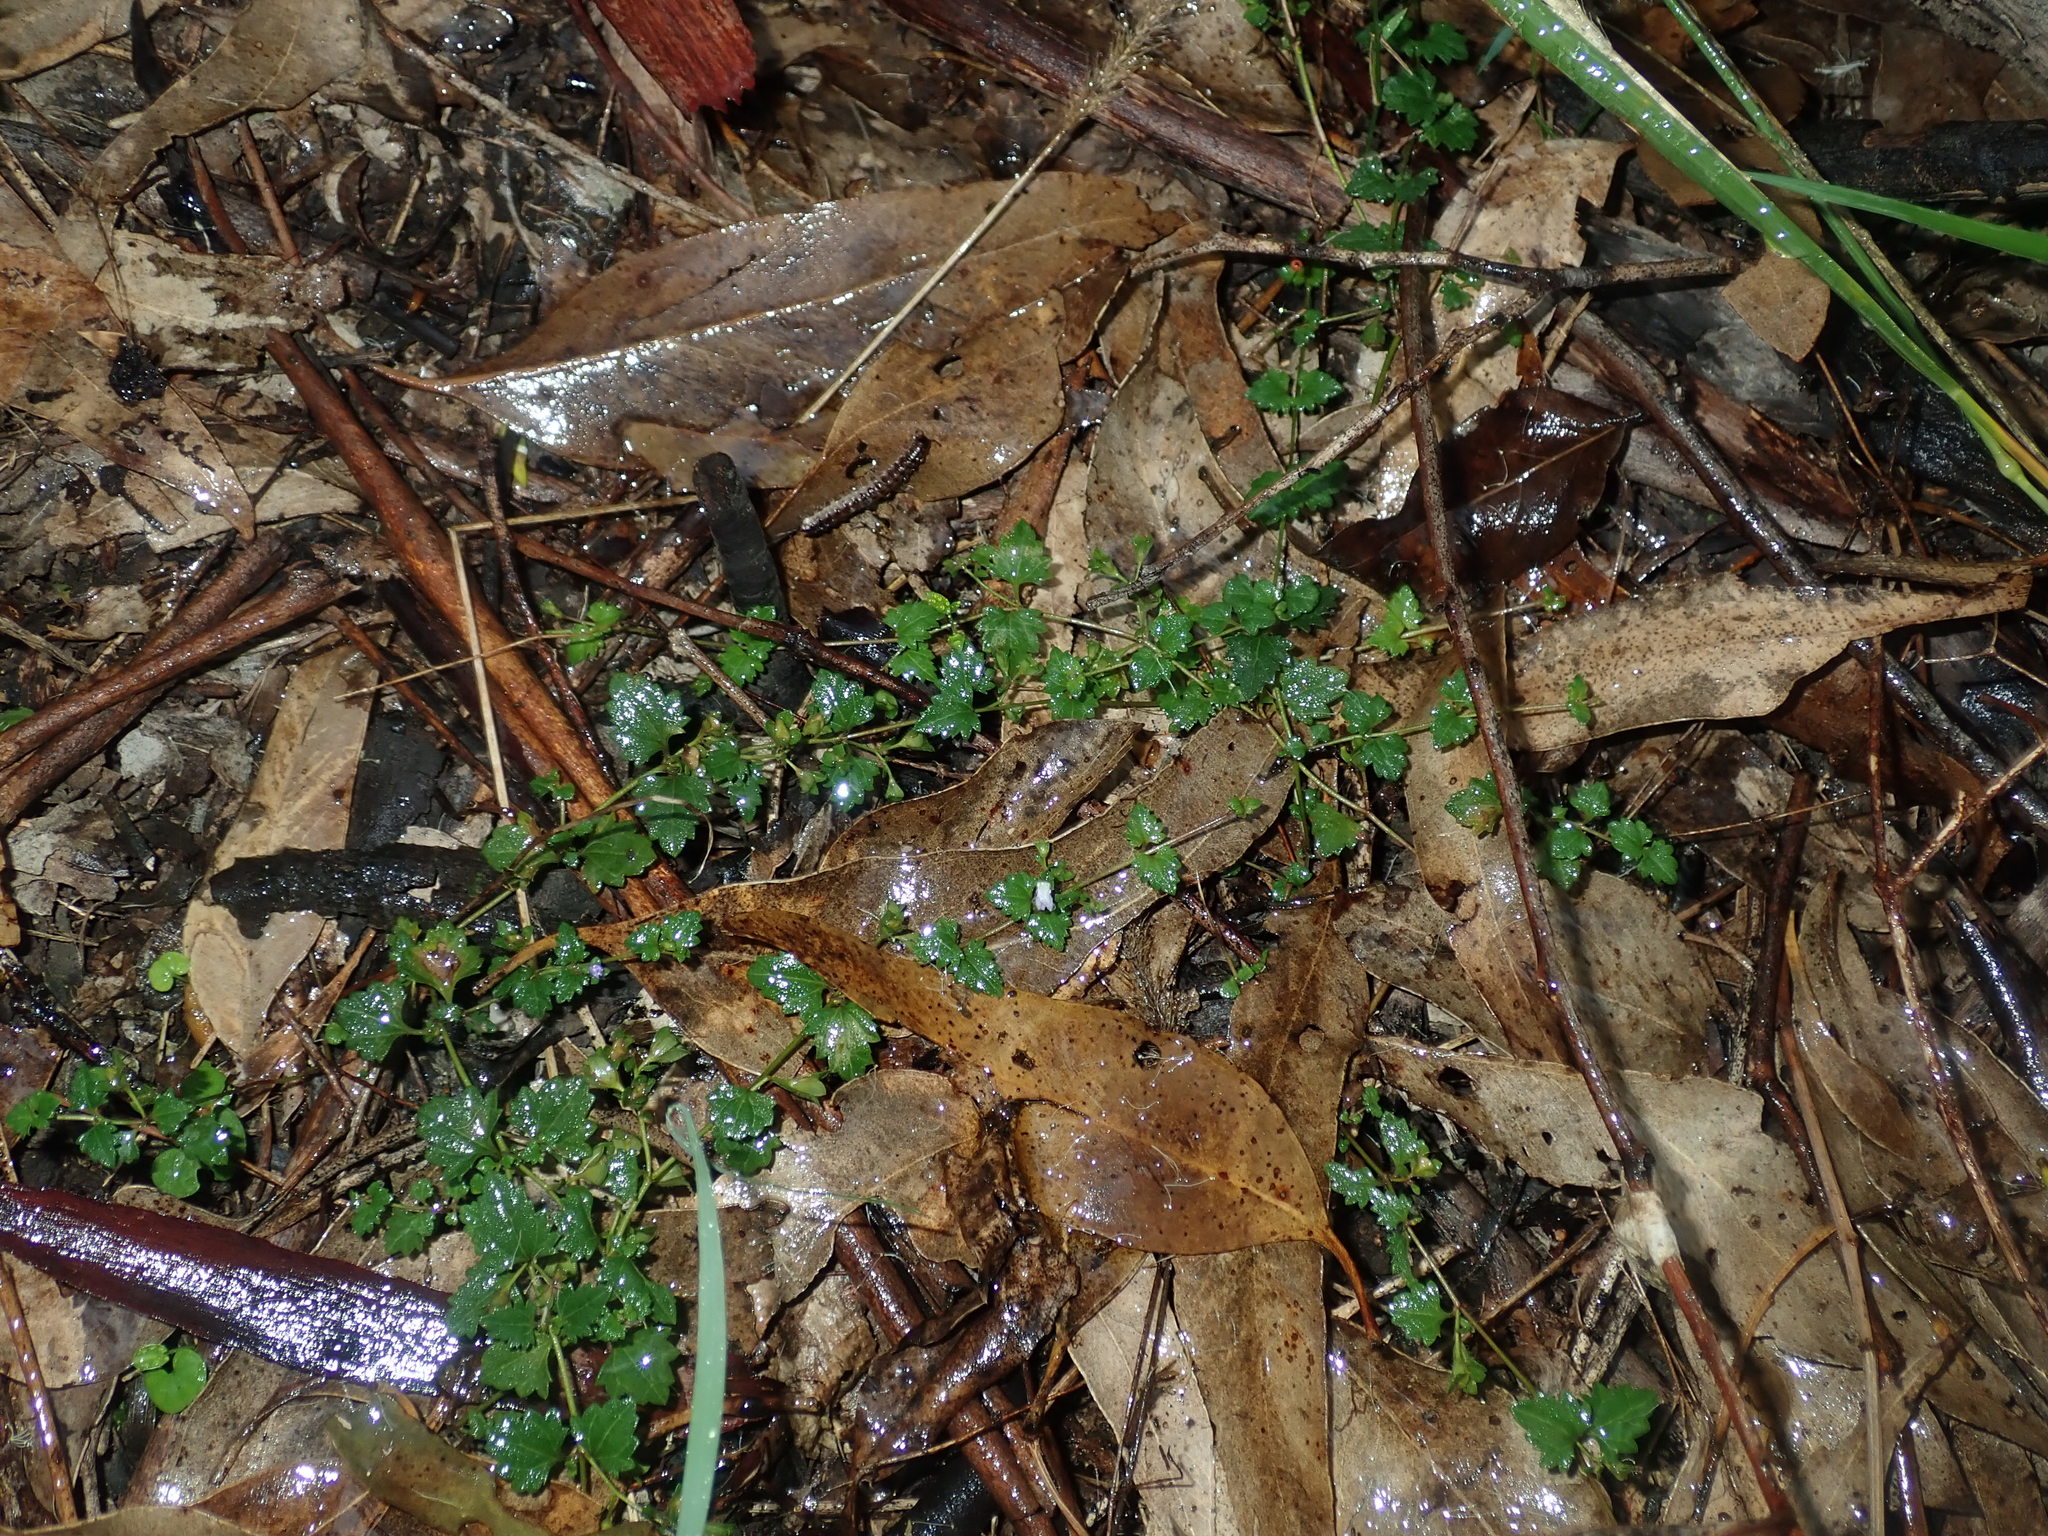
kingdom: Plantae
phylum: Tracheophyta
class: Magnoliopsida
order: Lamiales
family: Plantaginaceae
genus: Veronica
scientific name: Veronica plebeia
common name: Speedwell
